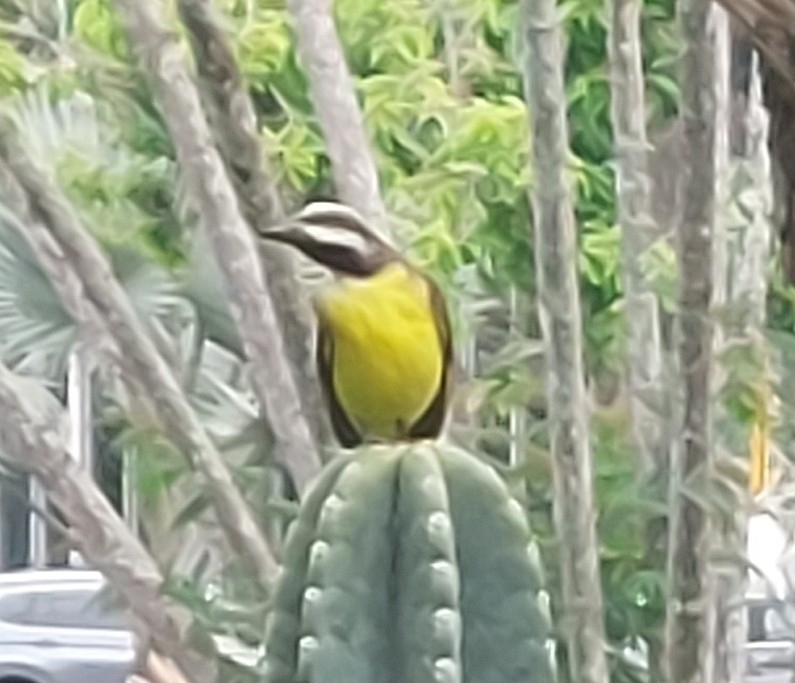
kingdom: Animalia
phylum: Chordata
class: Aves
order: Passeriformes
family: Tyrannidae
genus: Myiozetetes
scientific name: Myiozetetes similis
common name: Social flycatcher
